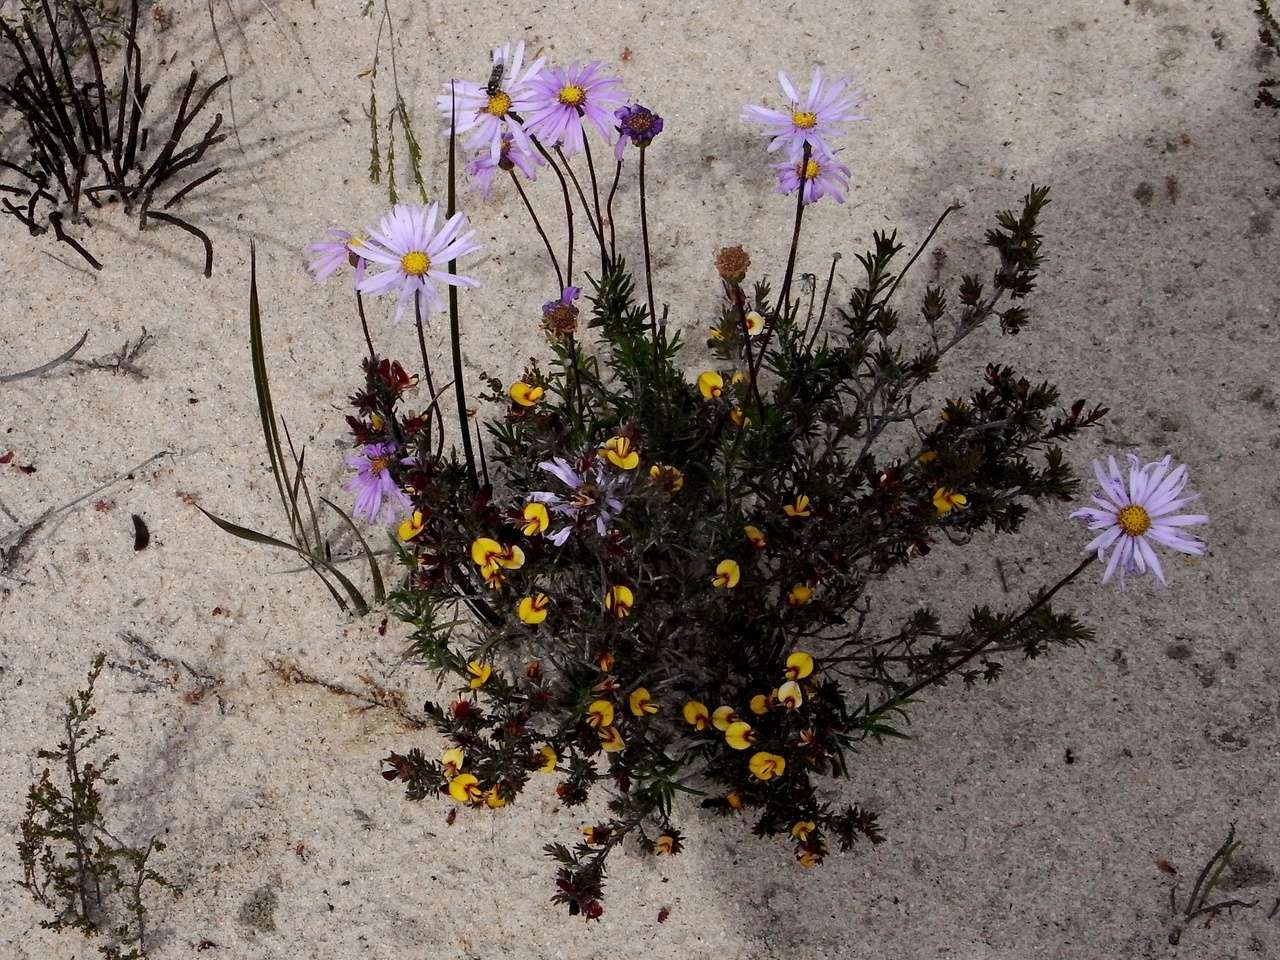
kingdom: Plantae
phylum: Tracheophyta
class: Magnoliopsida
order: Asterales
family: Asteraceae
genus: Olearia
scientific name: Olearia ciliata
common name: Fringed daisybush
